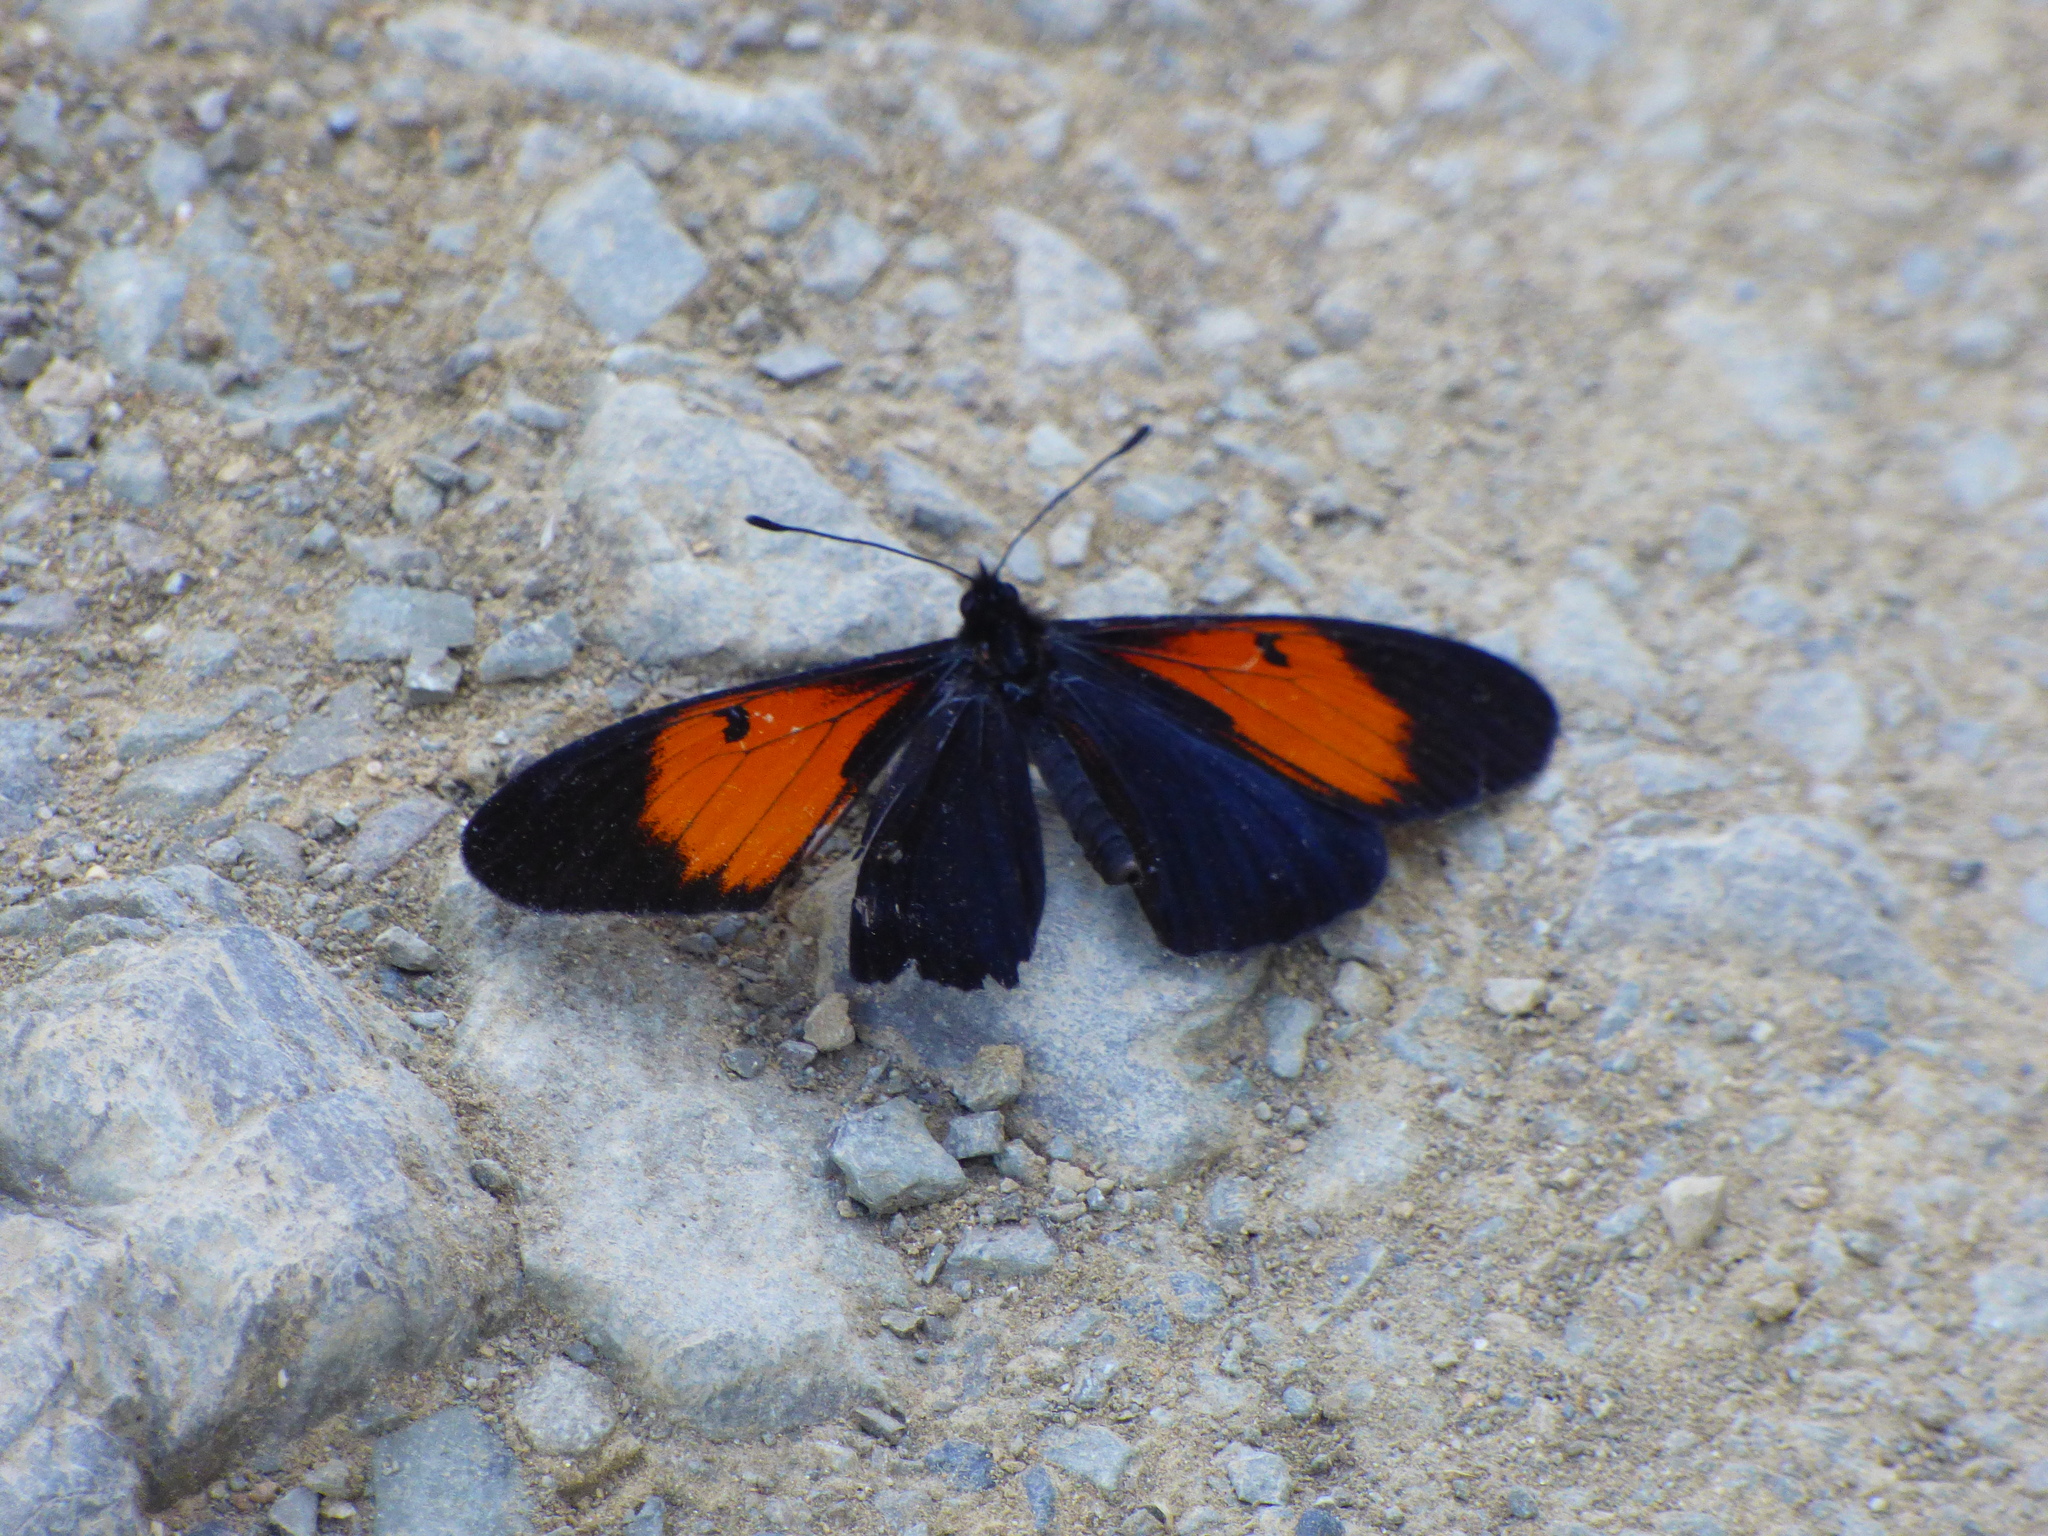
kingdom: Animalia
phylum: Arthropoda
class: Insecta
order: Lepidoptera
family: Nymphalidae
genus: Actinote
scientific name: Actinote stratonice
